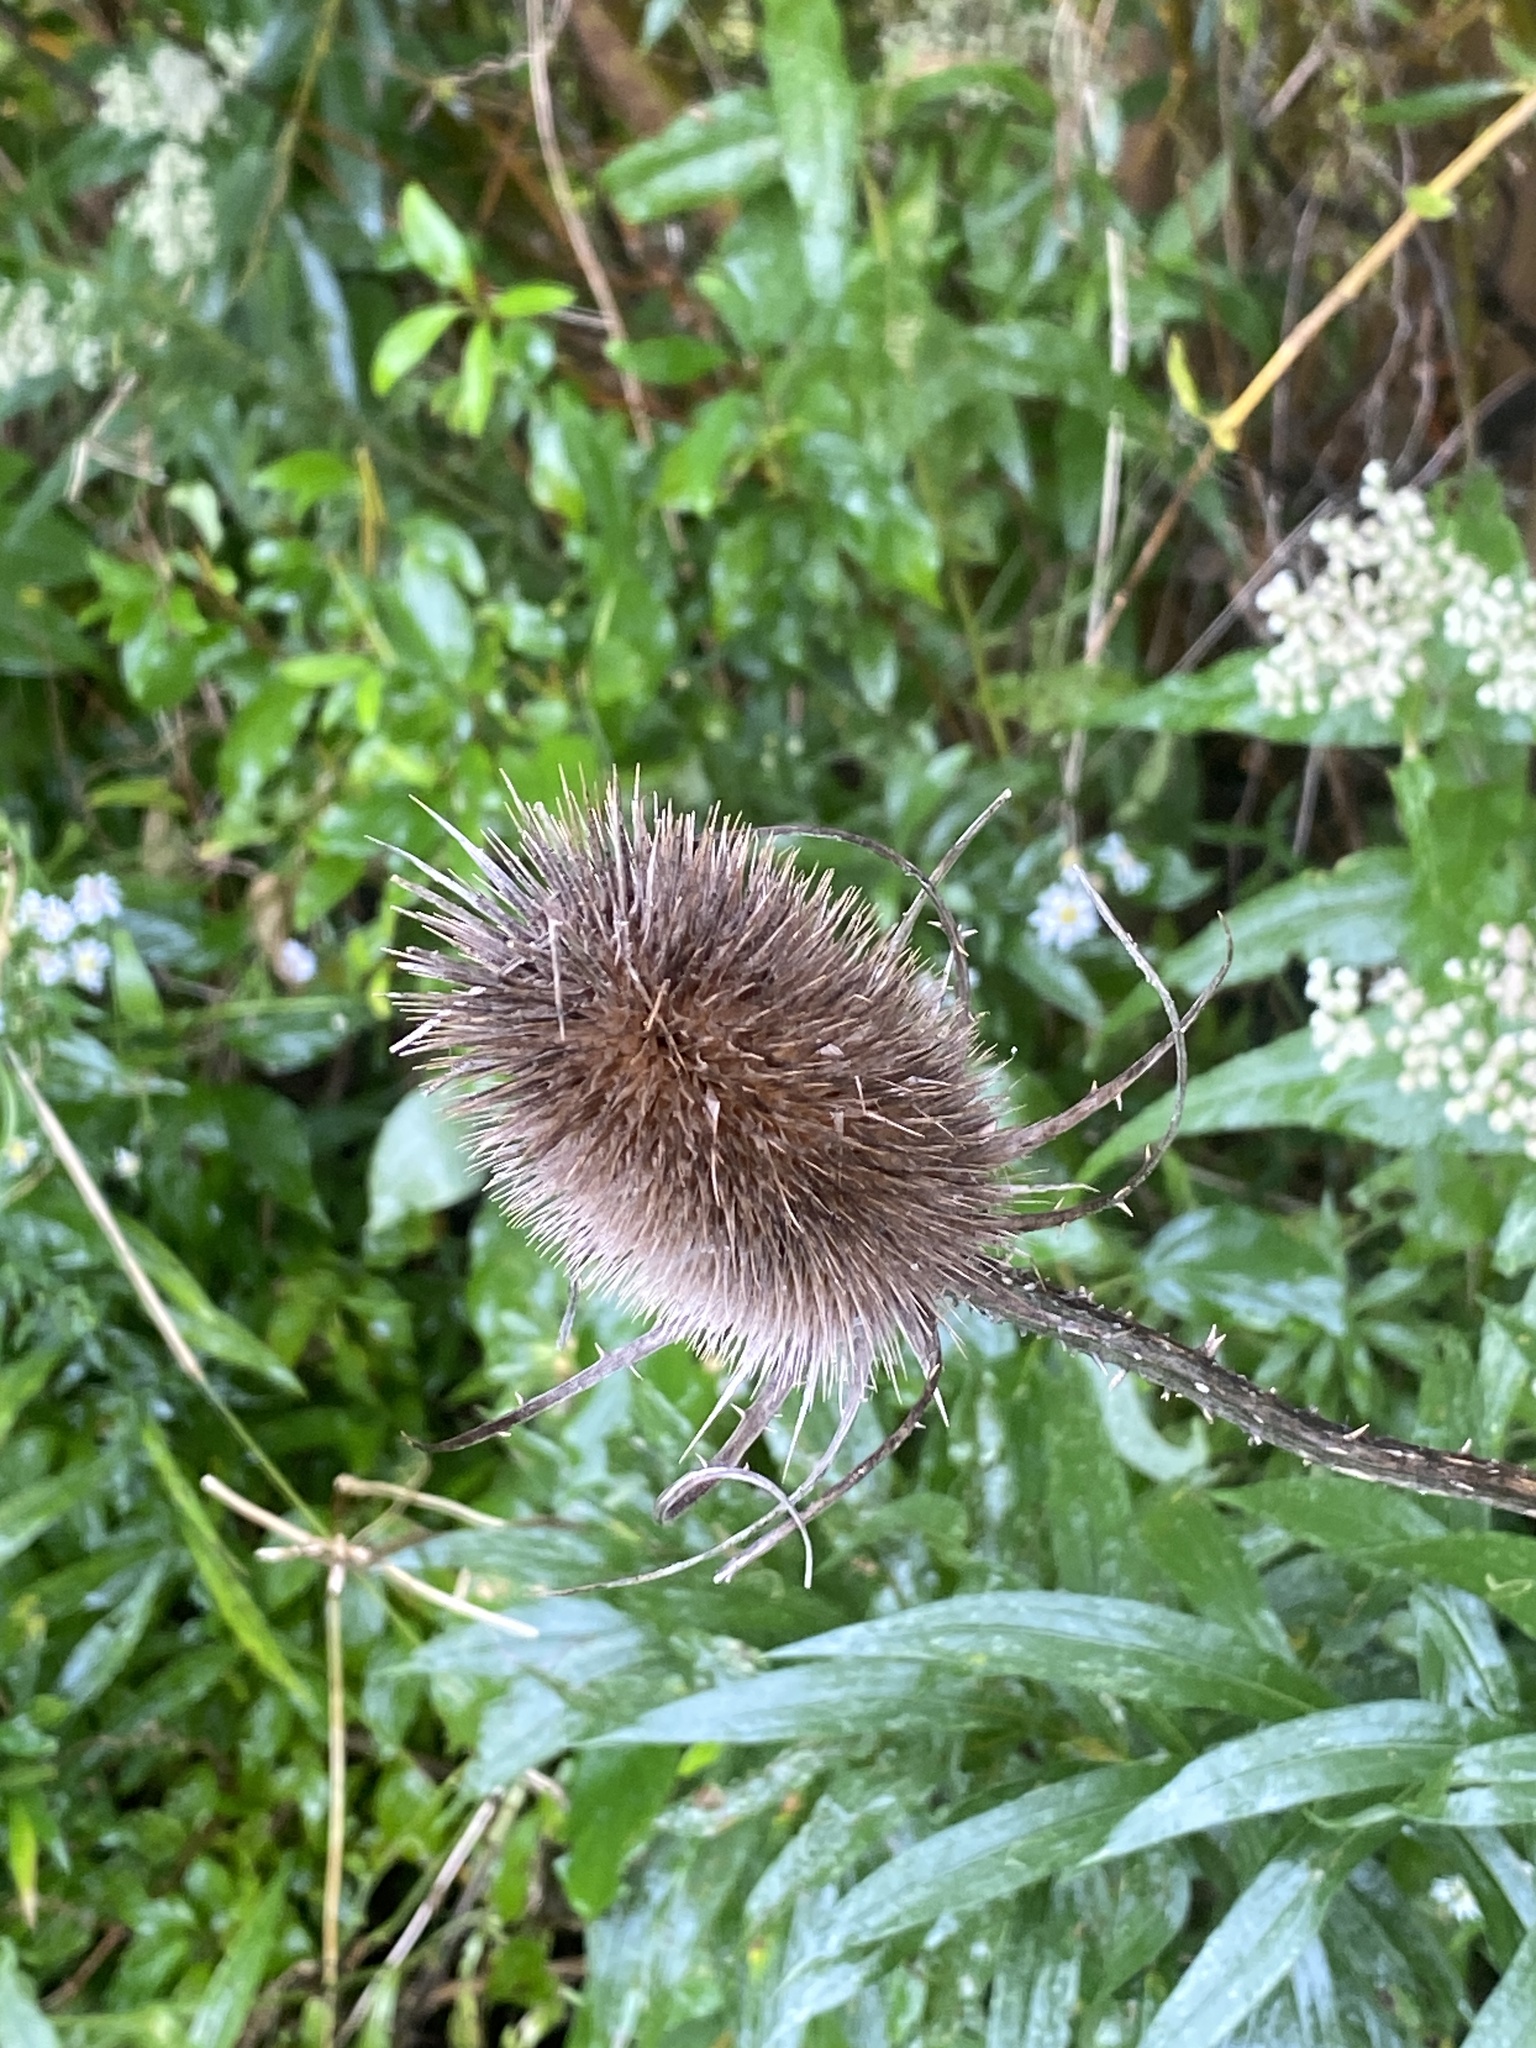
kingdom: Plantae
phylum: Tracheophyta
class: Magnoliopsida
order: Dipsacales
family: Caprifoliaceae
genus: Dipsacus
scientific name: Dipsacus fullonum
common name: Teasel
